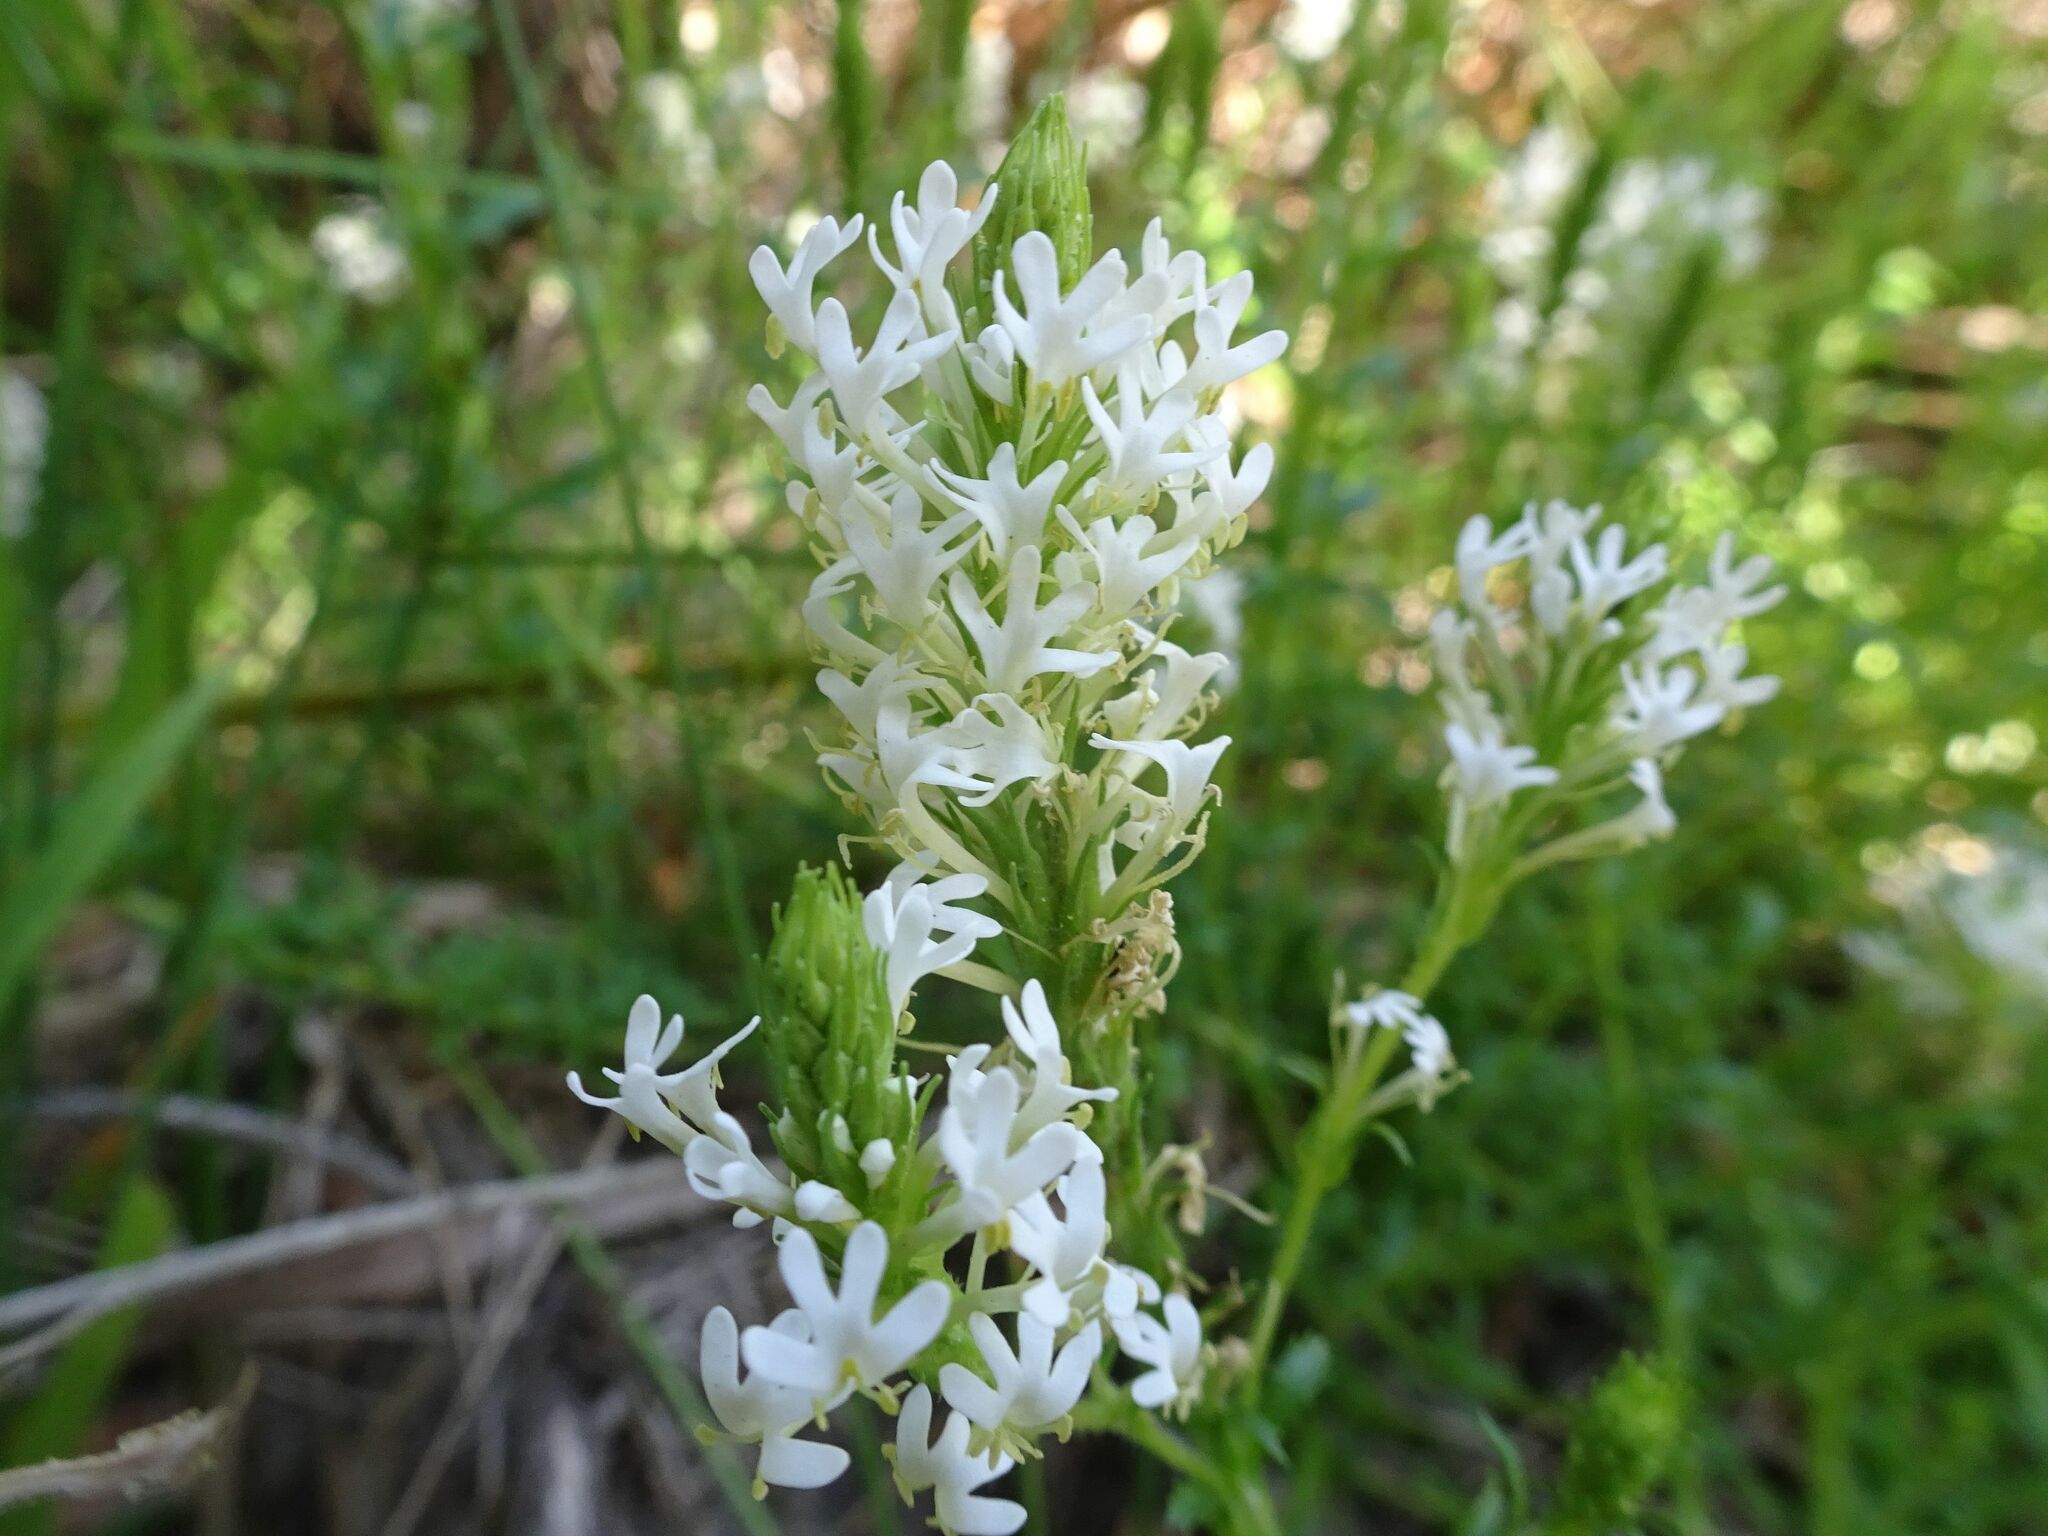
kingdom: Plantae
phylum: Tracheophyta
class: Magnoliopsida
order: Lamiales
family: Scrophulariaceae
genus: Dischisma
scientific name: Dischisma ciliatum
